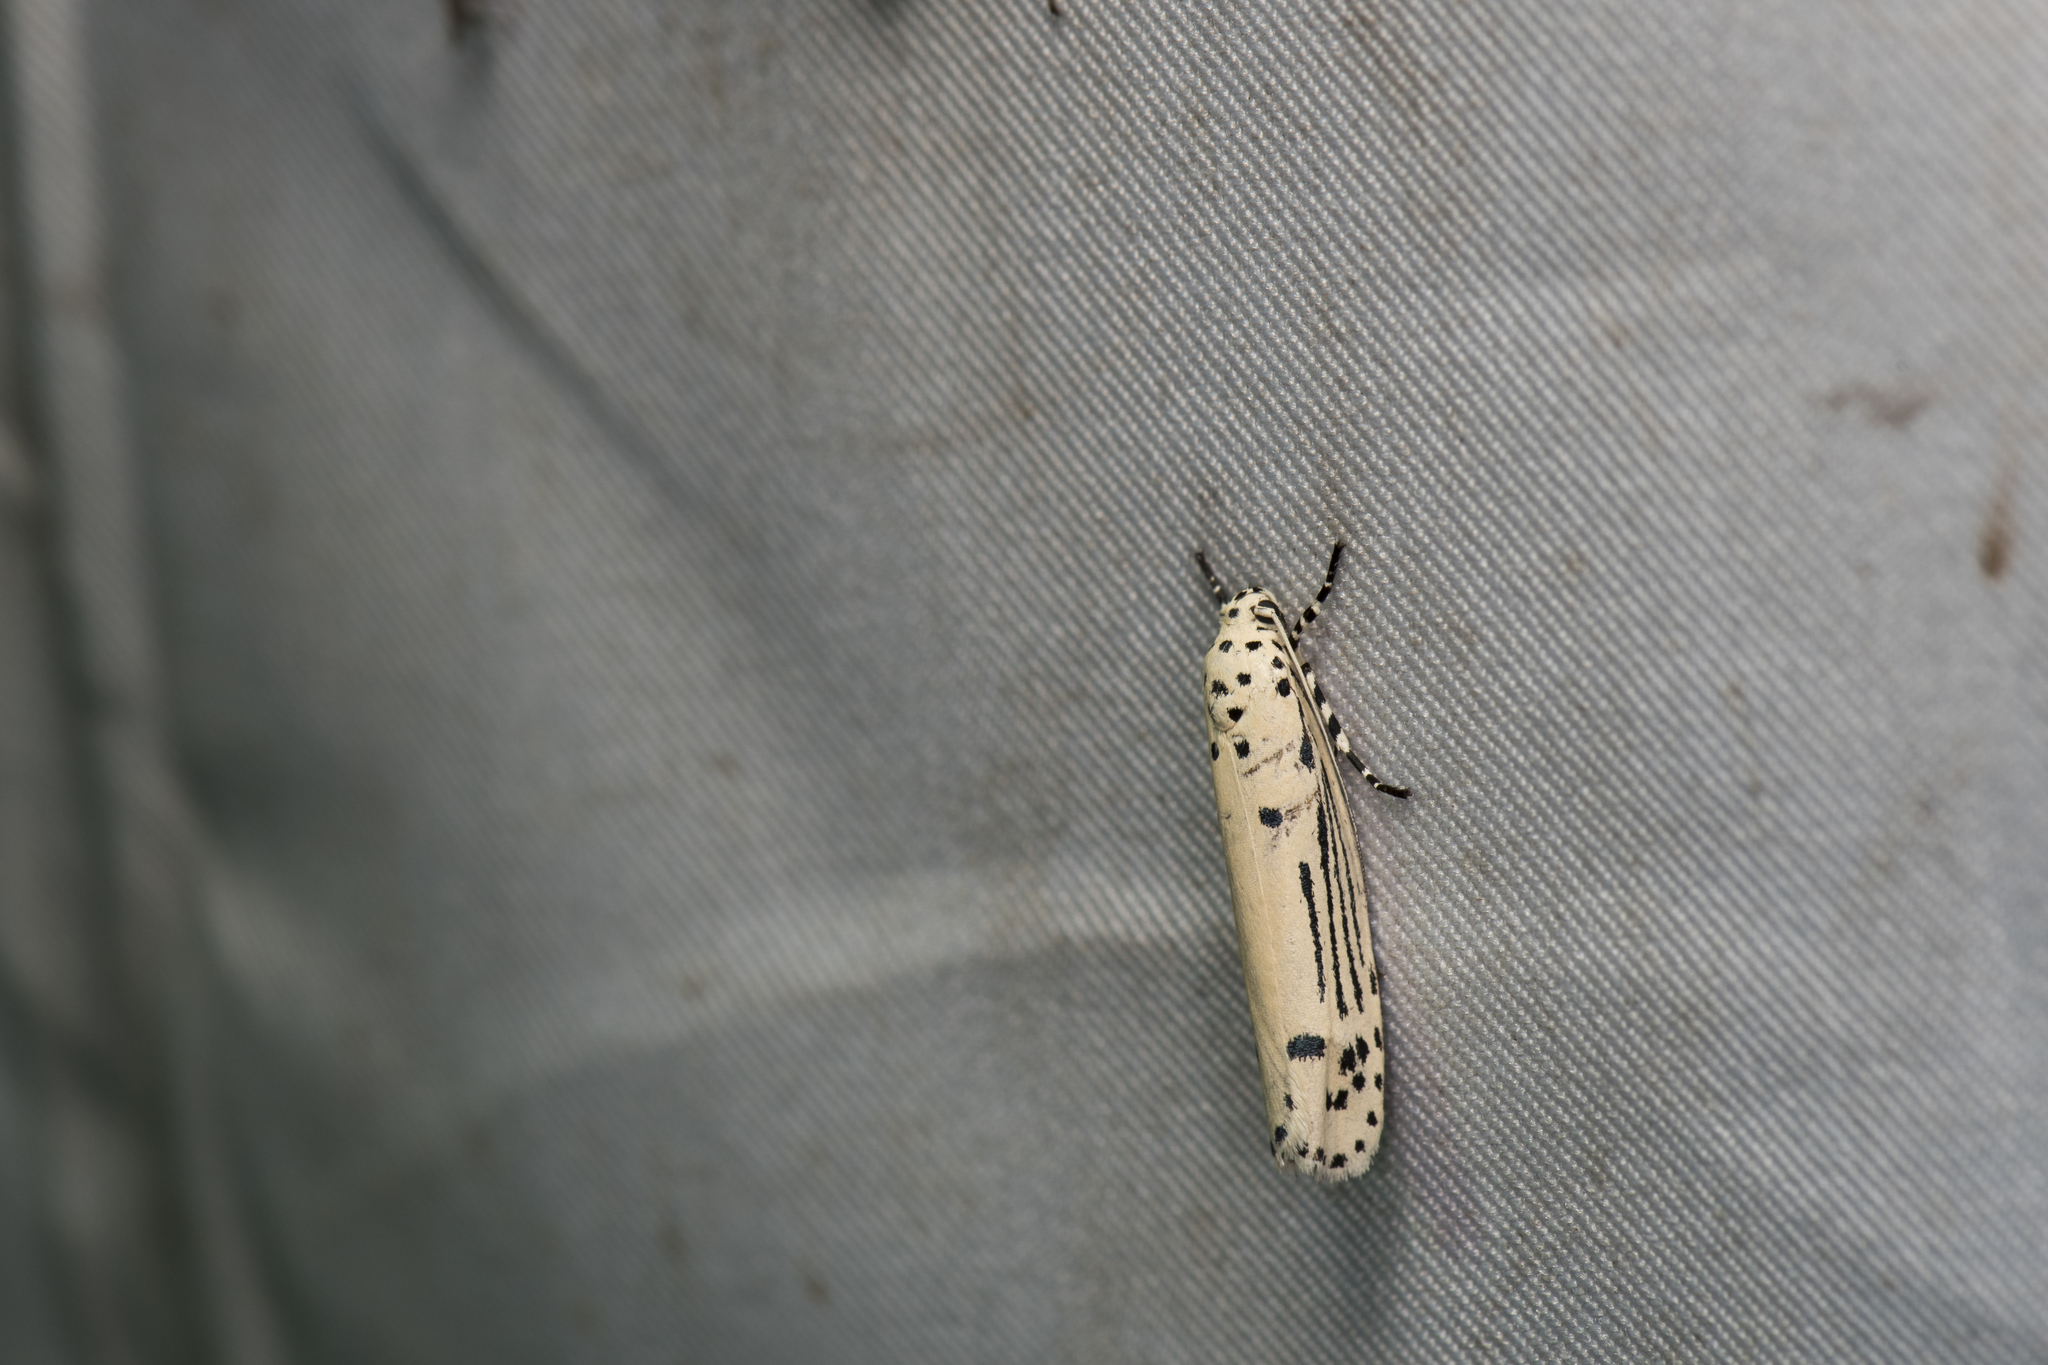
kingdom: Animalia
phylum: Arthropoda
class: Insecta
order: Lepidoptera
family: Ethmiidae
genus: Ethmia
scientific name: Ethmia lineatonotella
